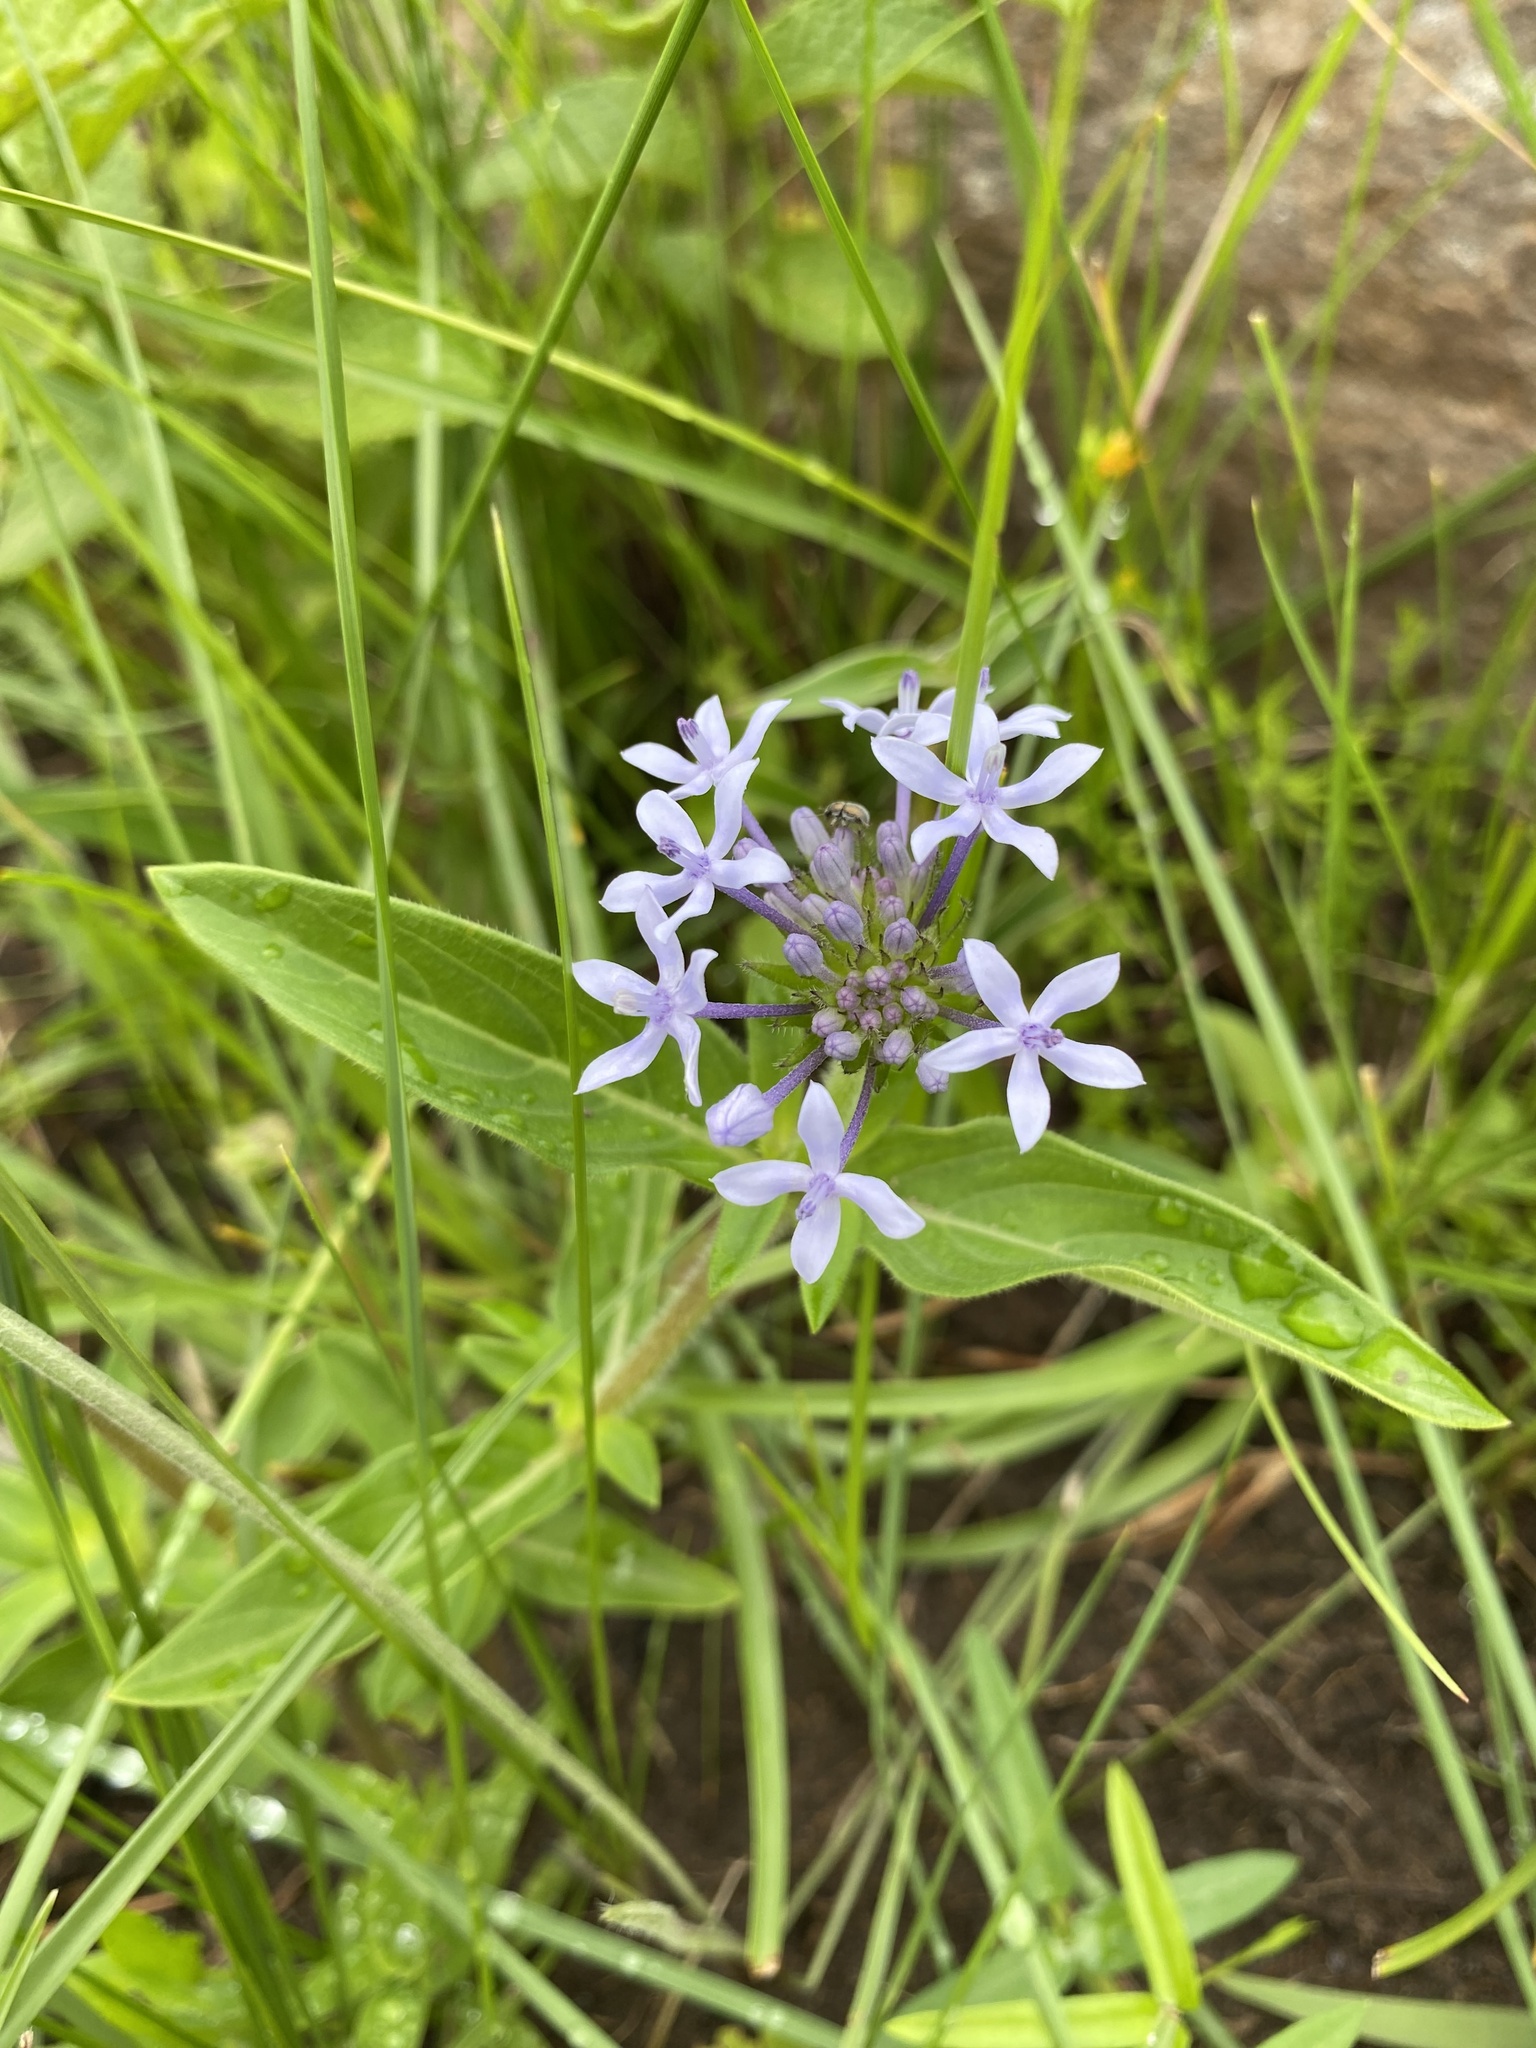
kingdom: Plantae
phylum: Tracheophyta
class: Magnoliopsida
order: Gentianales
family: Rubiaceae
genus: Pentanisia
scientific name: Pentanisia angustifolia
